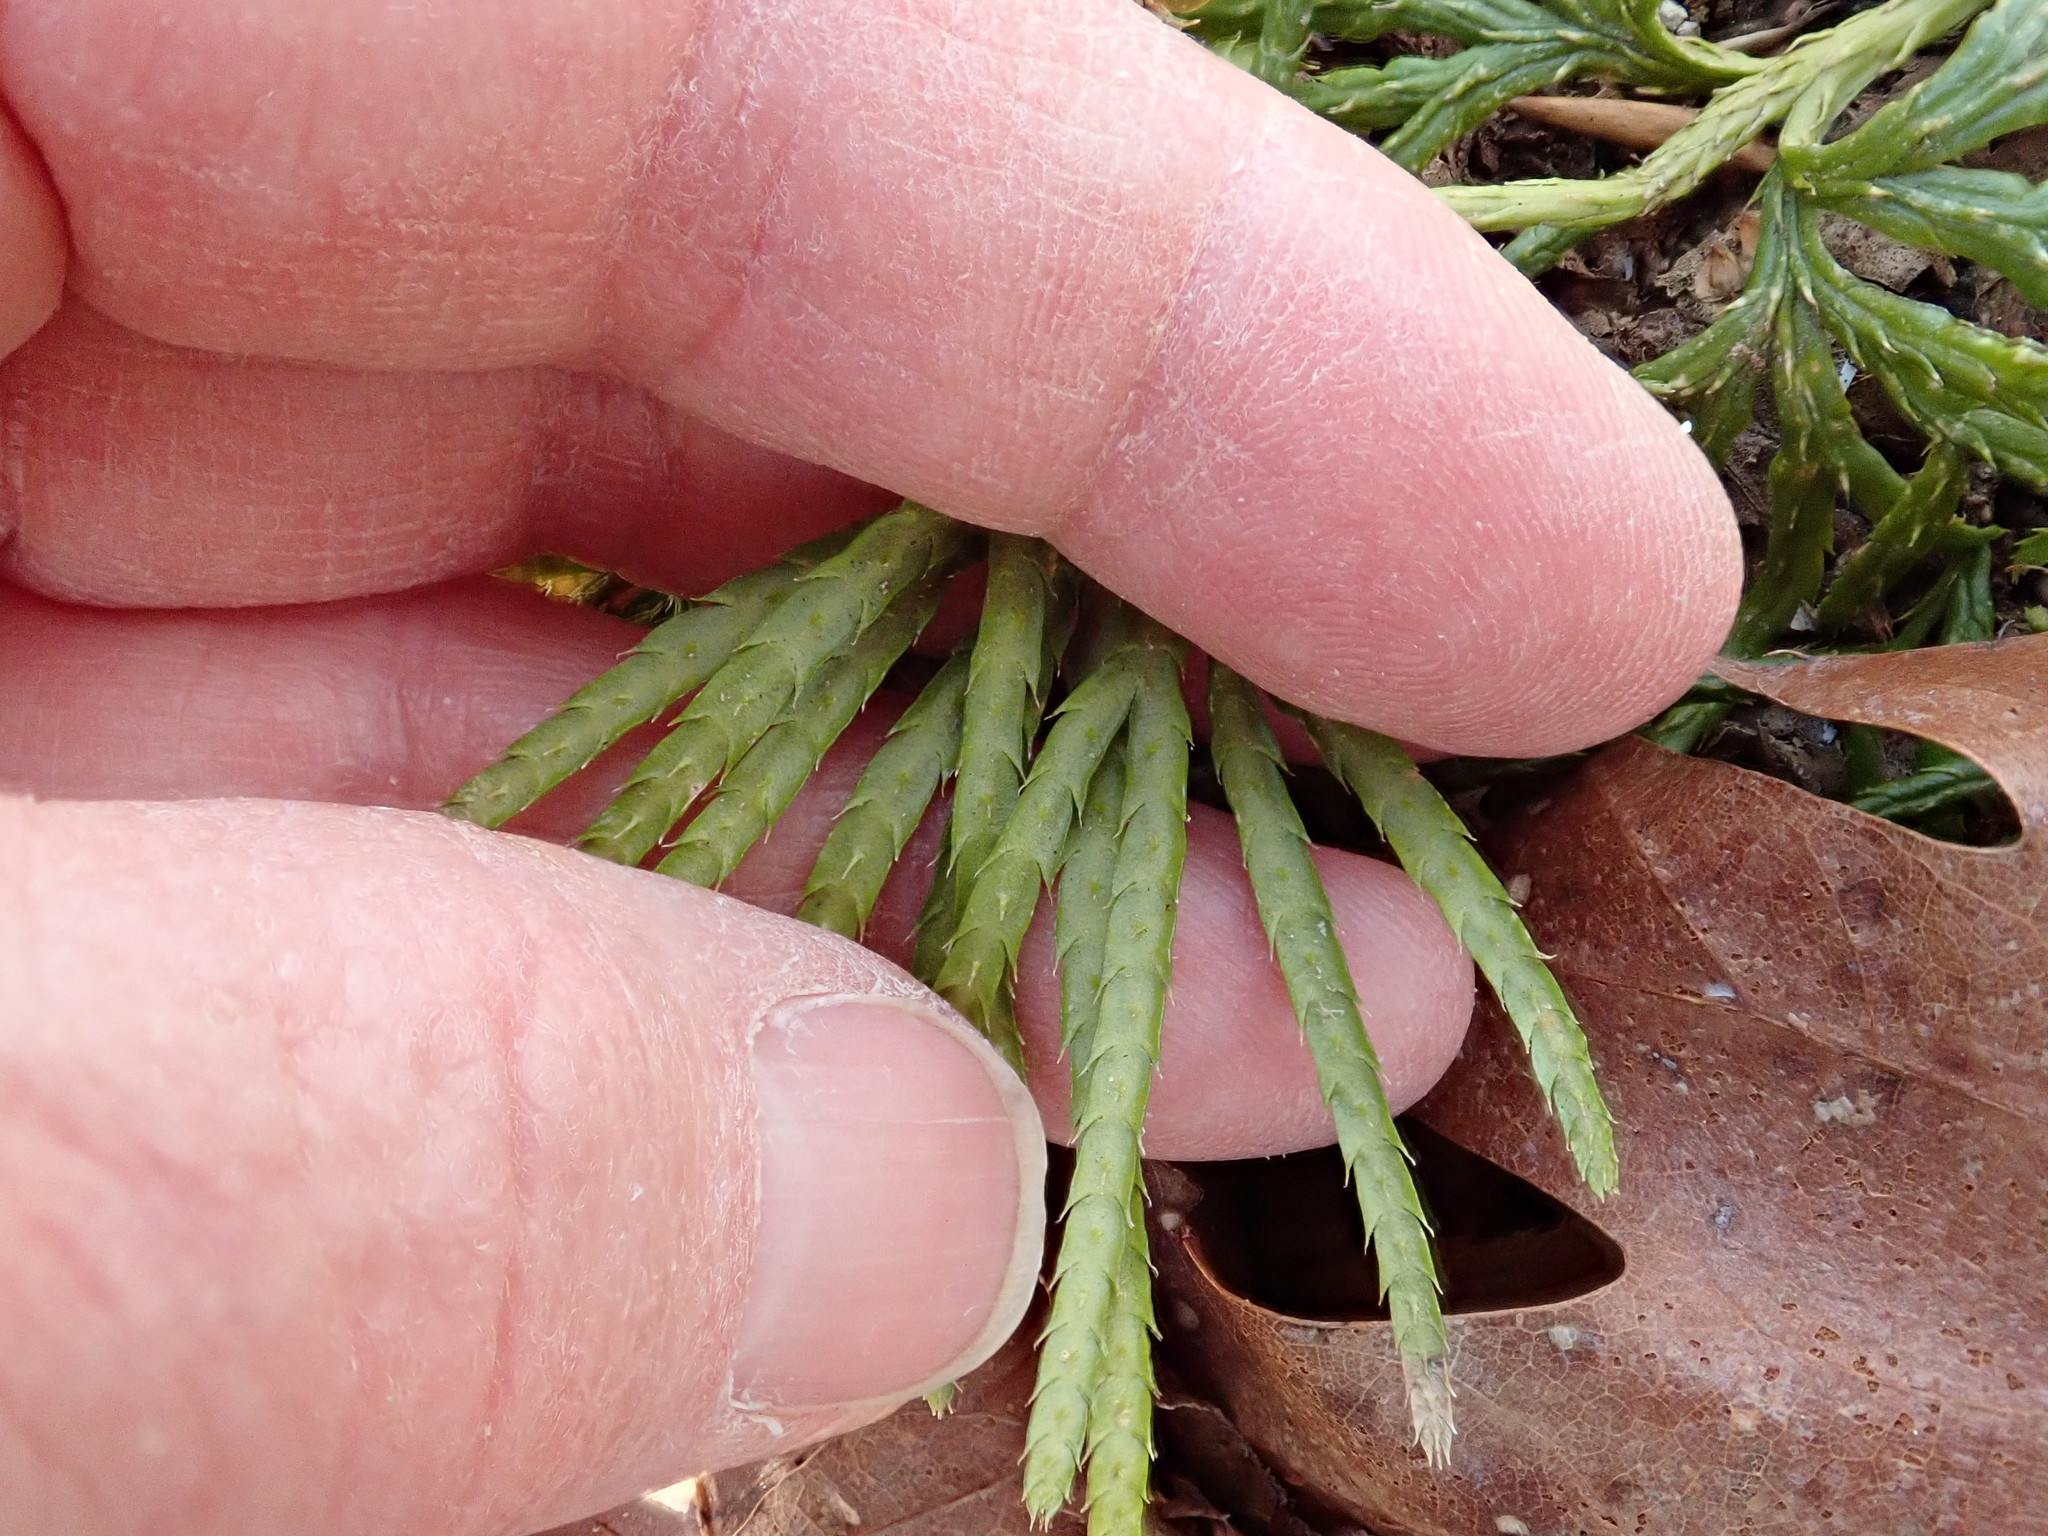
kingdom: Plantae
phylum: Tracheophyta
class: Lycopodiopsida
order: Lycopodiales
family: Lycopodiaceae
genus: Diphasiastrum
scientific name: Diphasiastrum digitatum
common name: Southern running-pine
